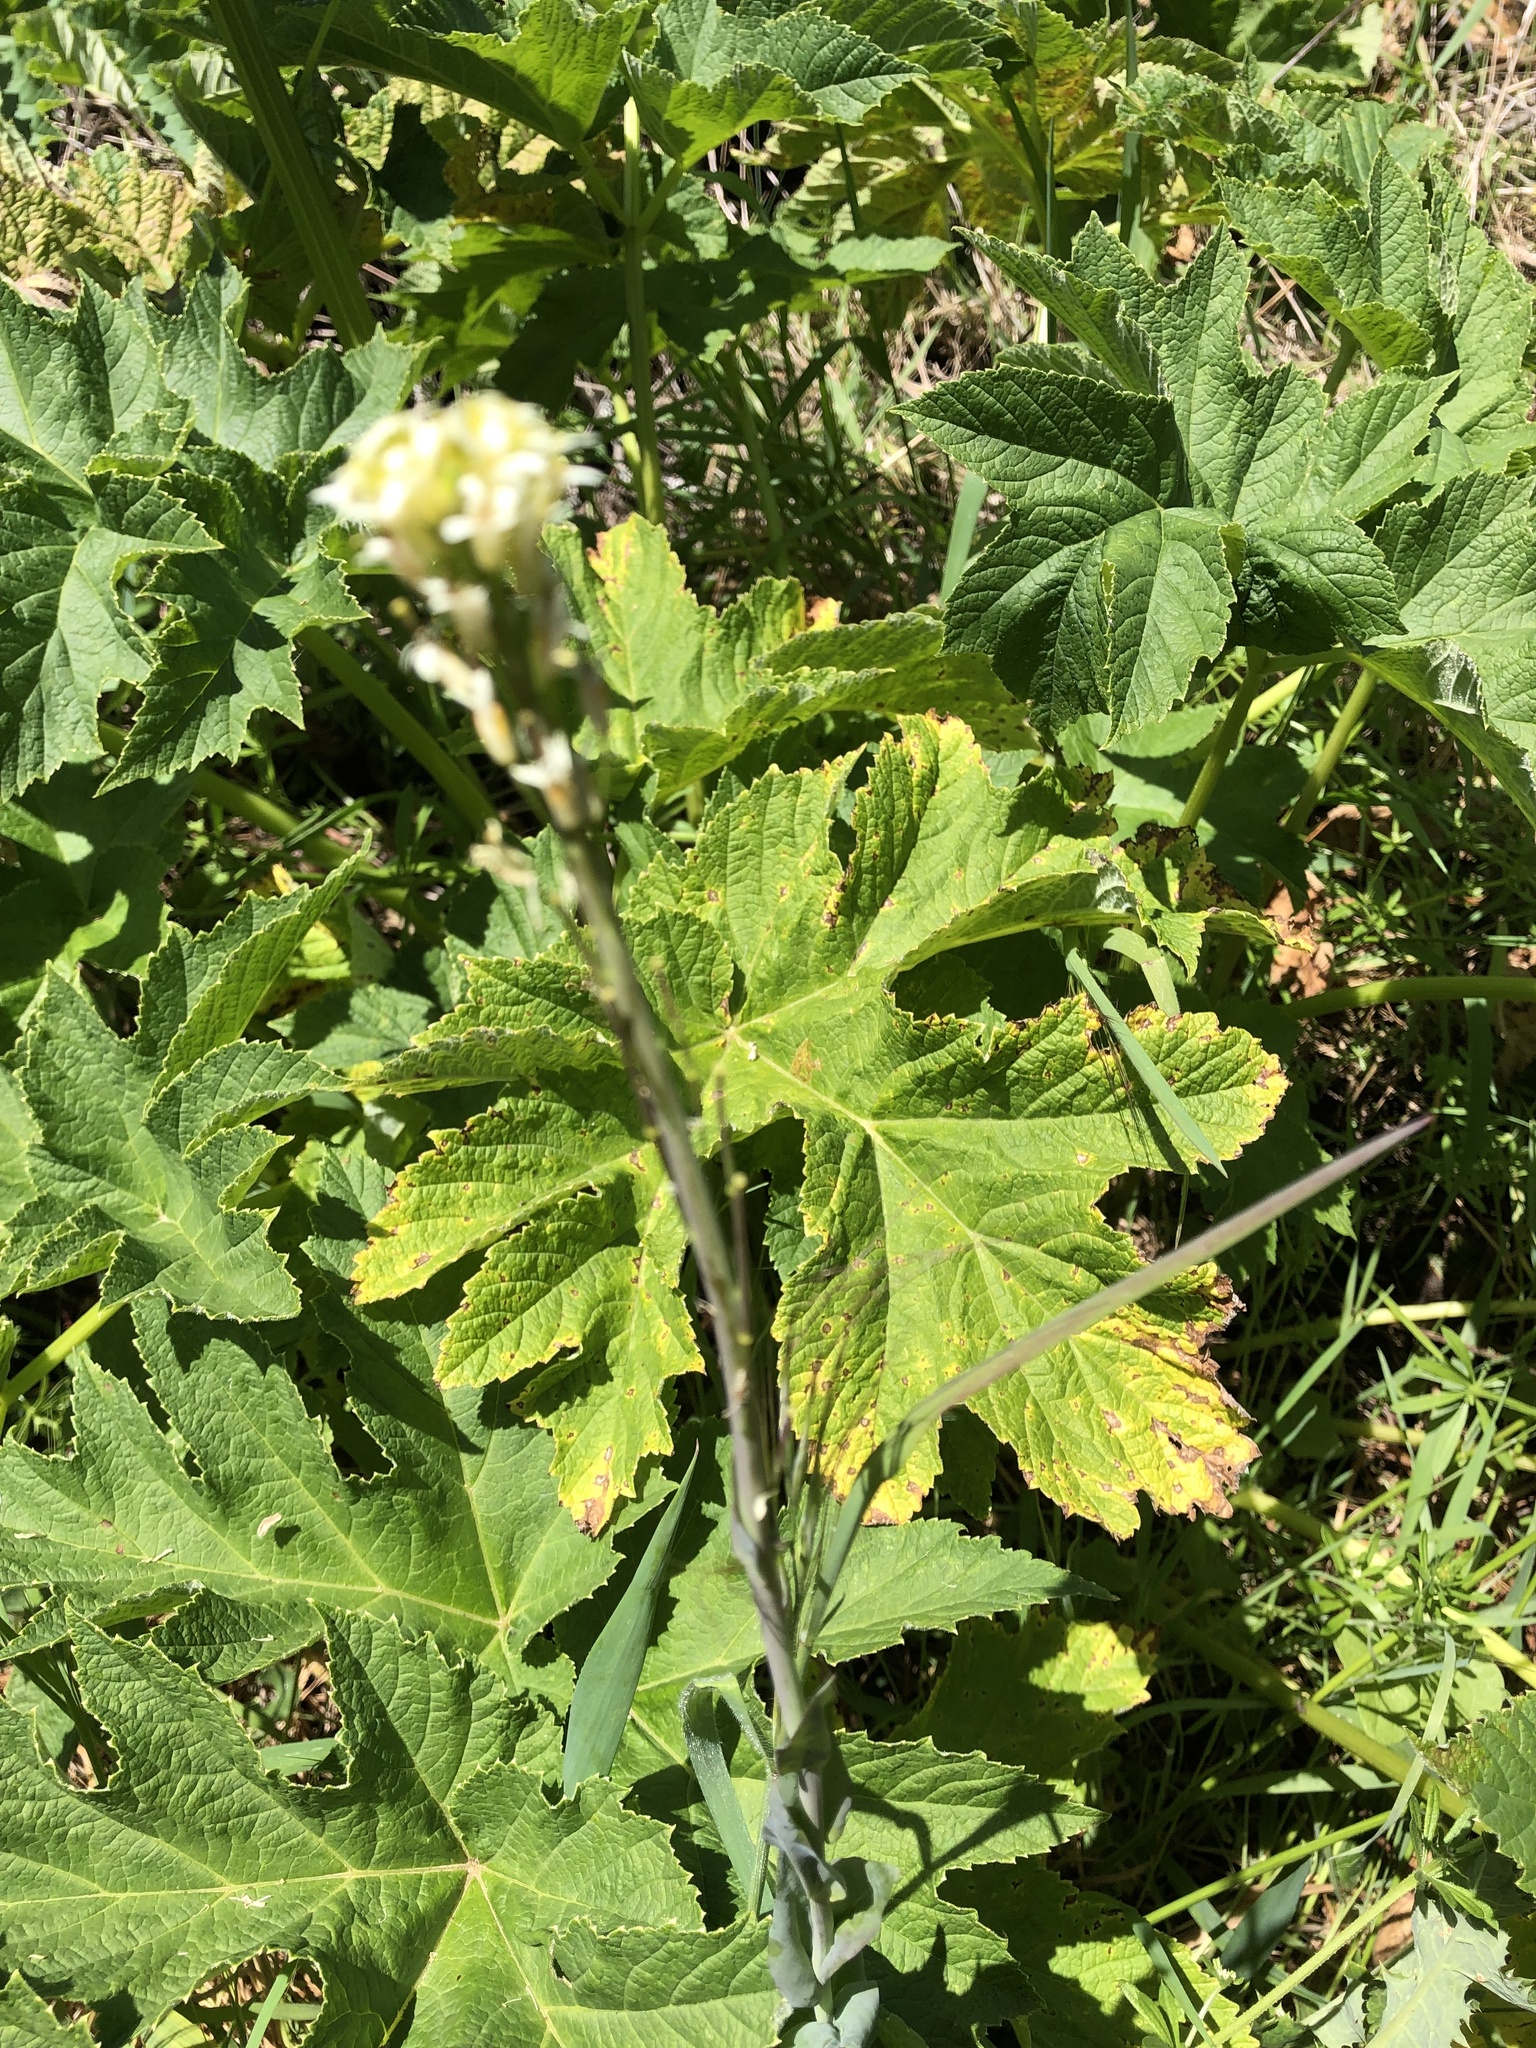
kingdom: Plantae
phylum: Tracheophyta
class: Magnoliopsida
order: Brassicales
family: Brassicaceae
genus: Turritis
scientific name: Turritis glabra
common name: Tower rockcress
